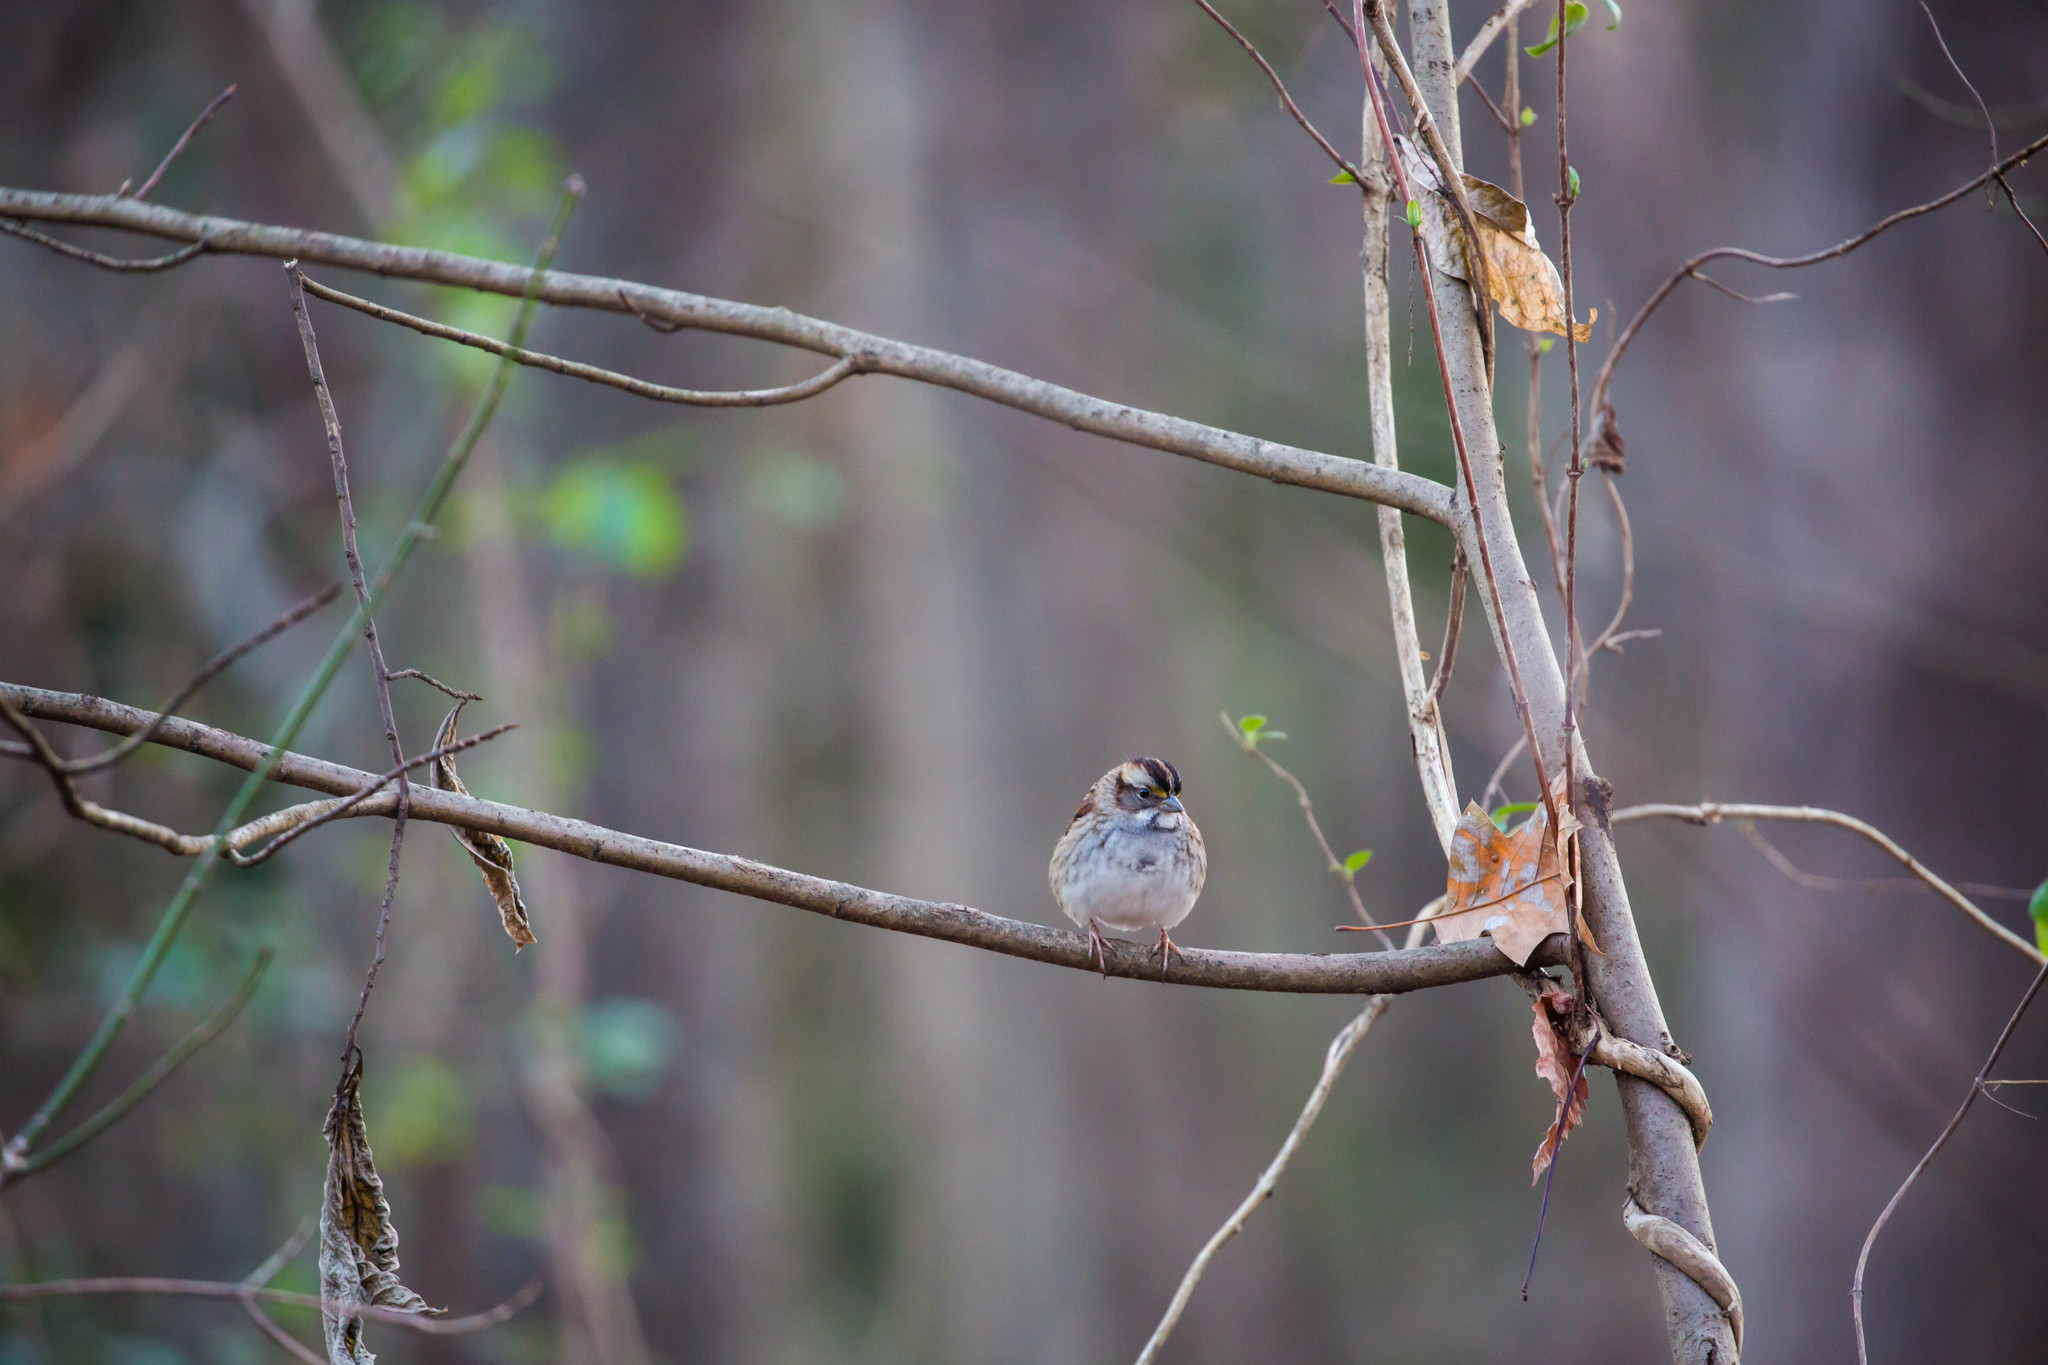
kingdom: Animalia
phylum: Chordata
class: Aves
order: Passeriformes
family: Passerellidae
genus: Zonotrichia
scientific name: Zonotrichia albicollis
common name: White-throated sparrow
